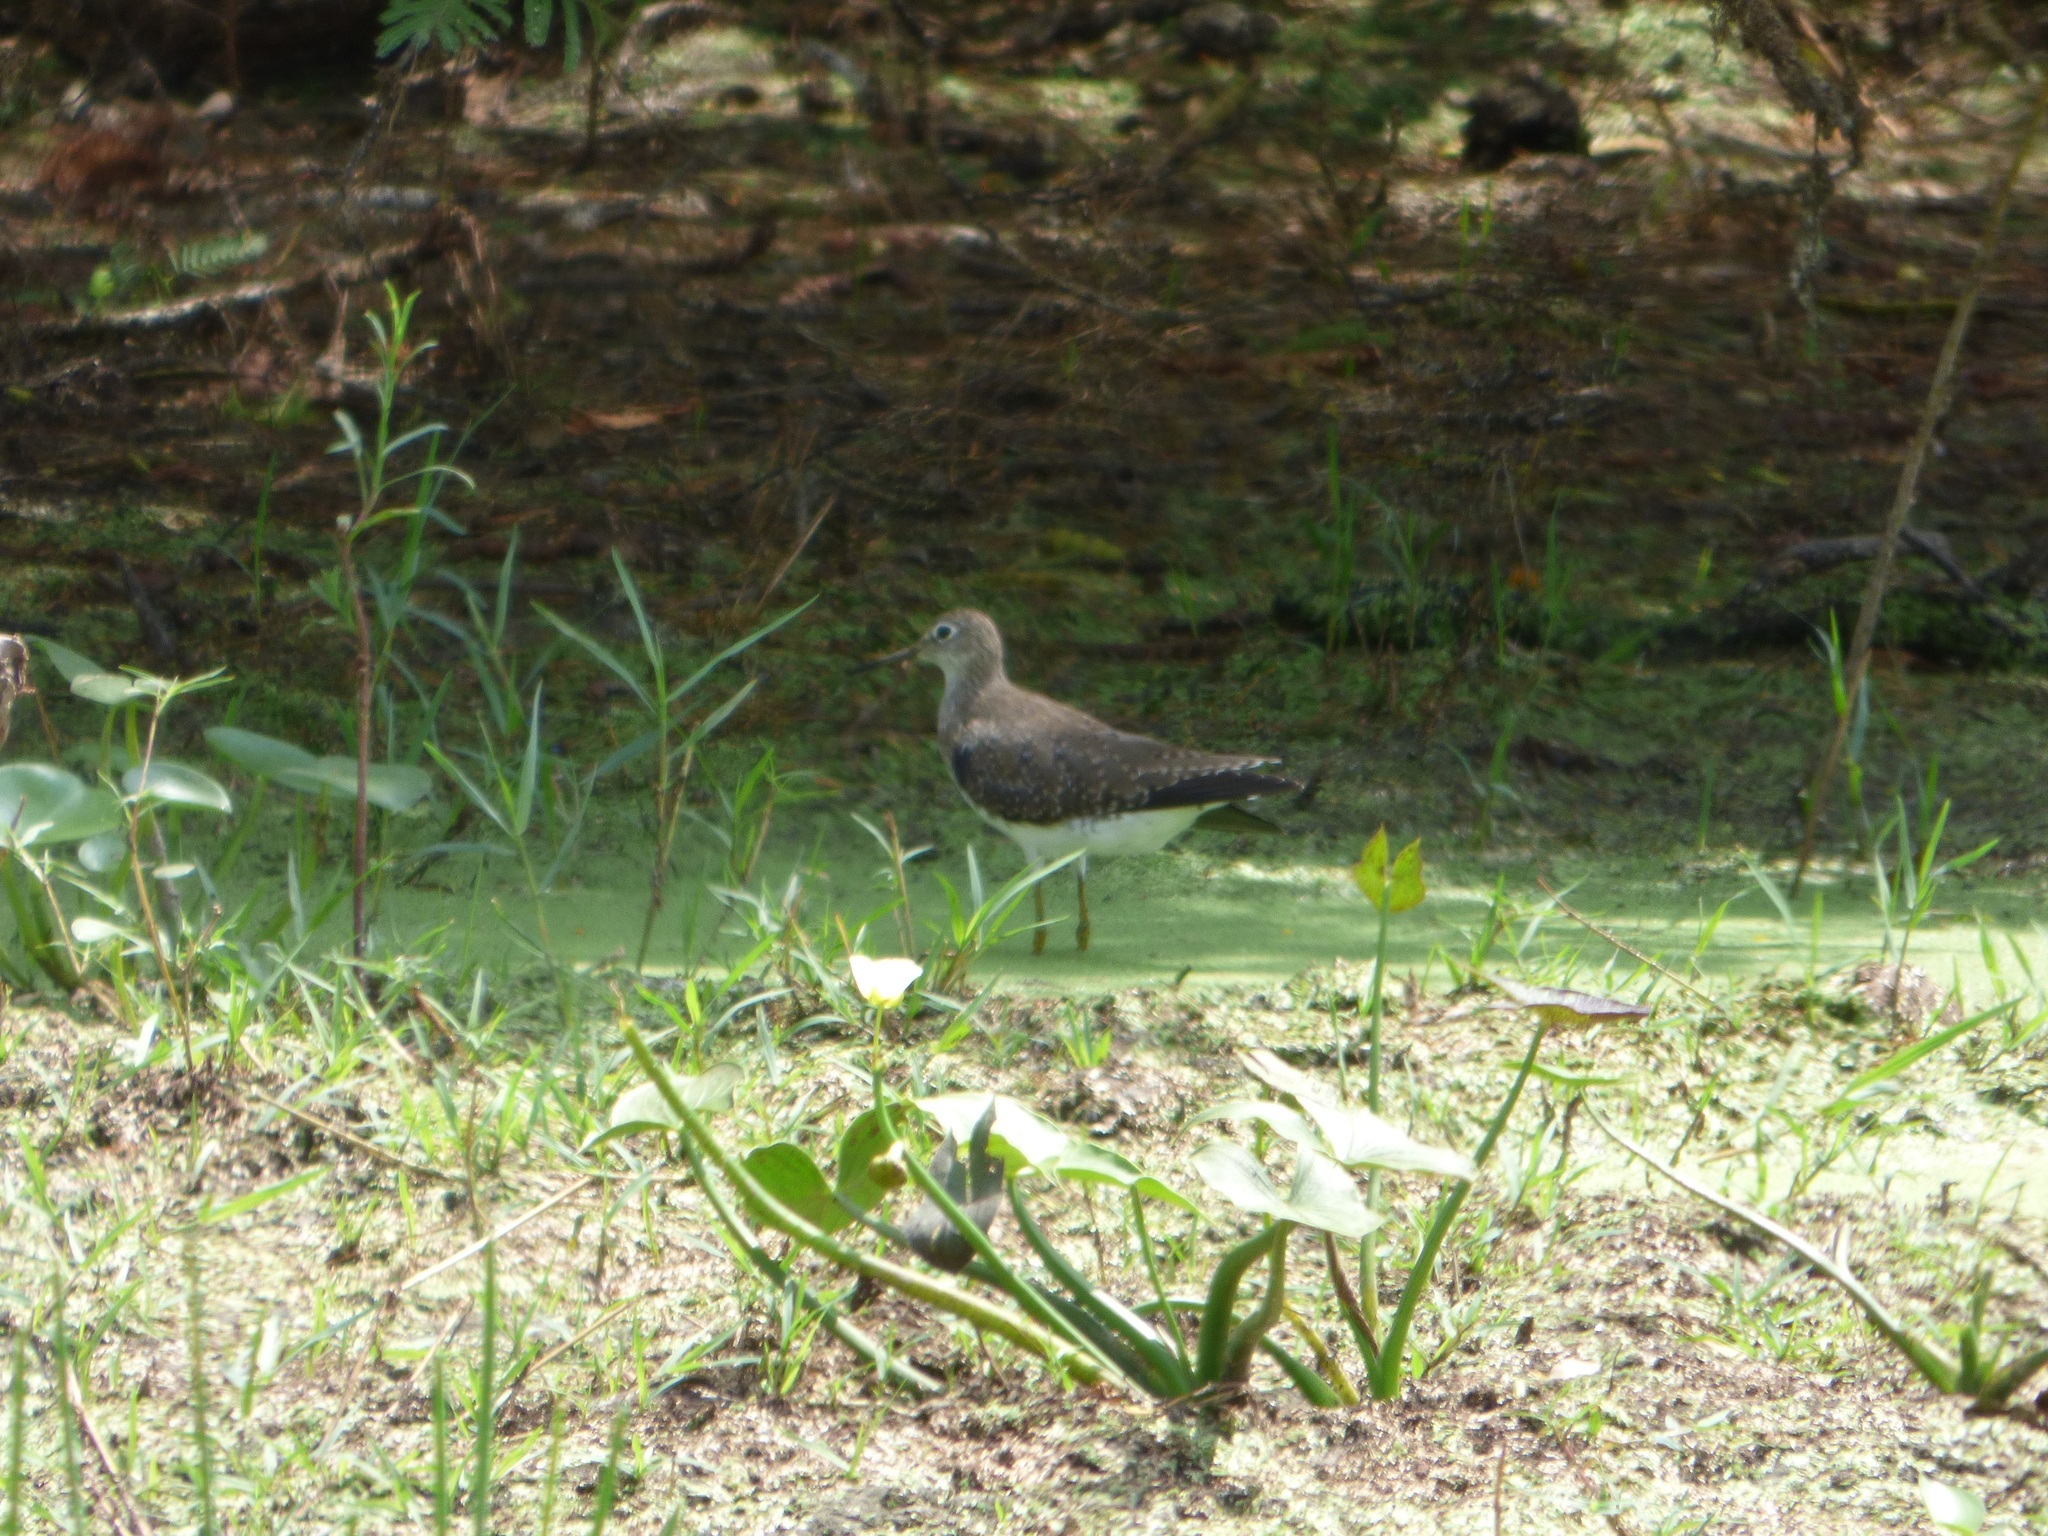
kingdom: Animalia
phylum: Chordata
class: Aves
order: Charadriiformes
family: Scolopacidae
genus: Tringa
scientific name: Tringa solitaria
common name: Solitary sandpiper
